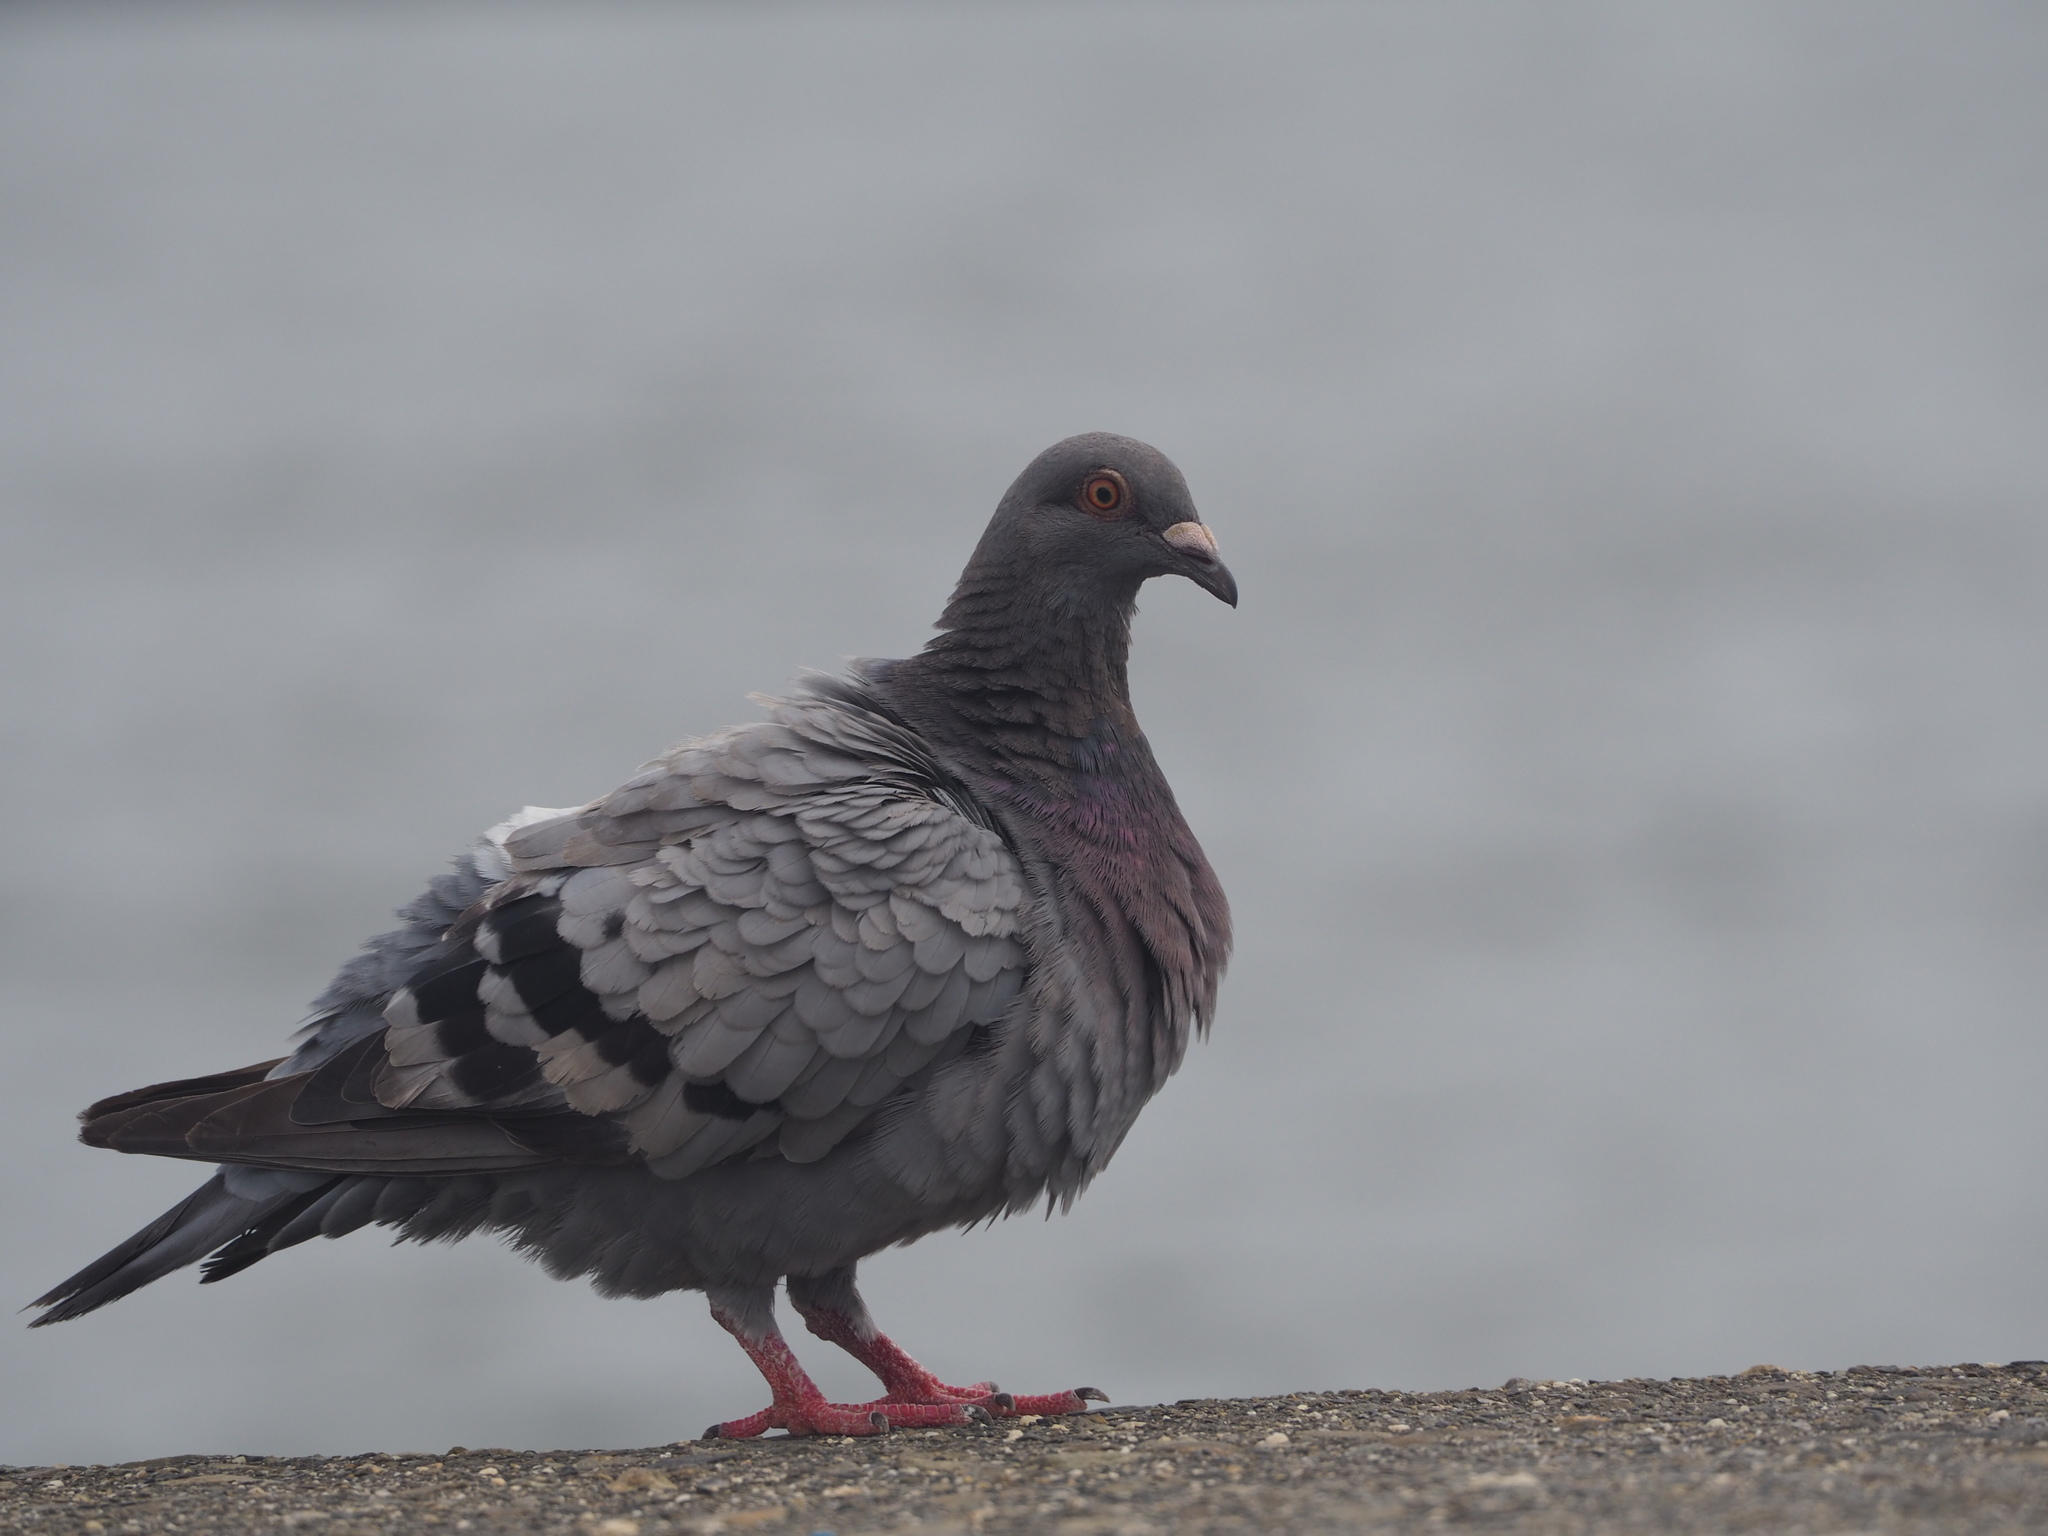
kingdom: Animalia
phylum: Chordata
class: Aves
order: Columbiformes
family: Columbidae
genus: Columba
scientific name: Columba livia
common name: Rock pigeon
